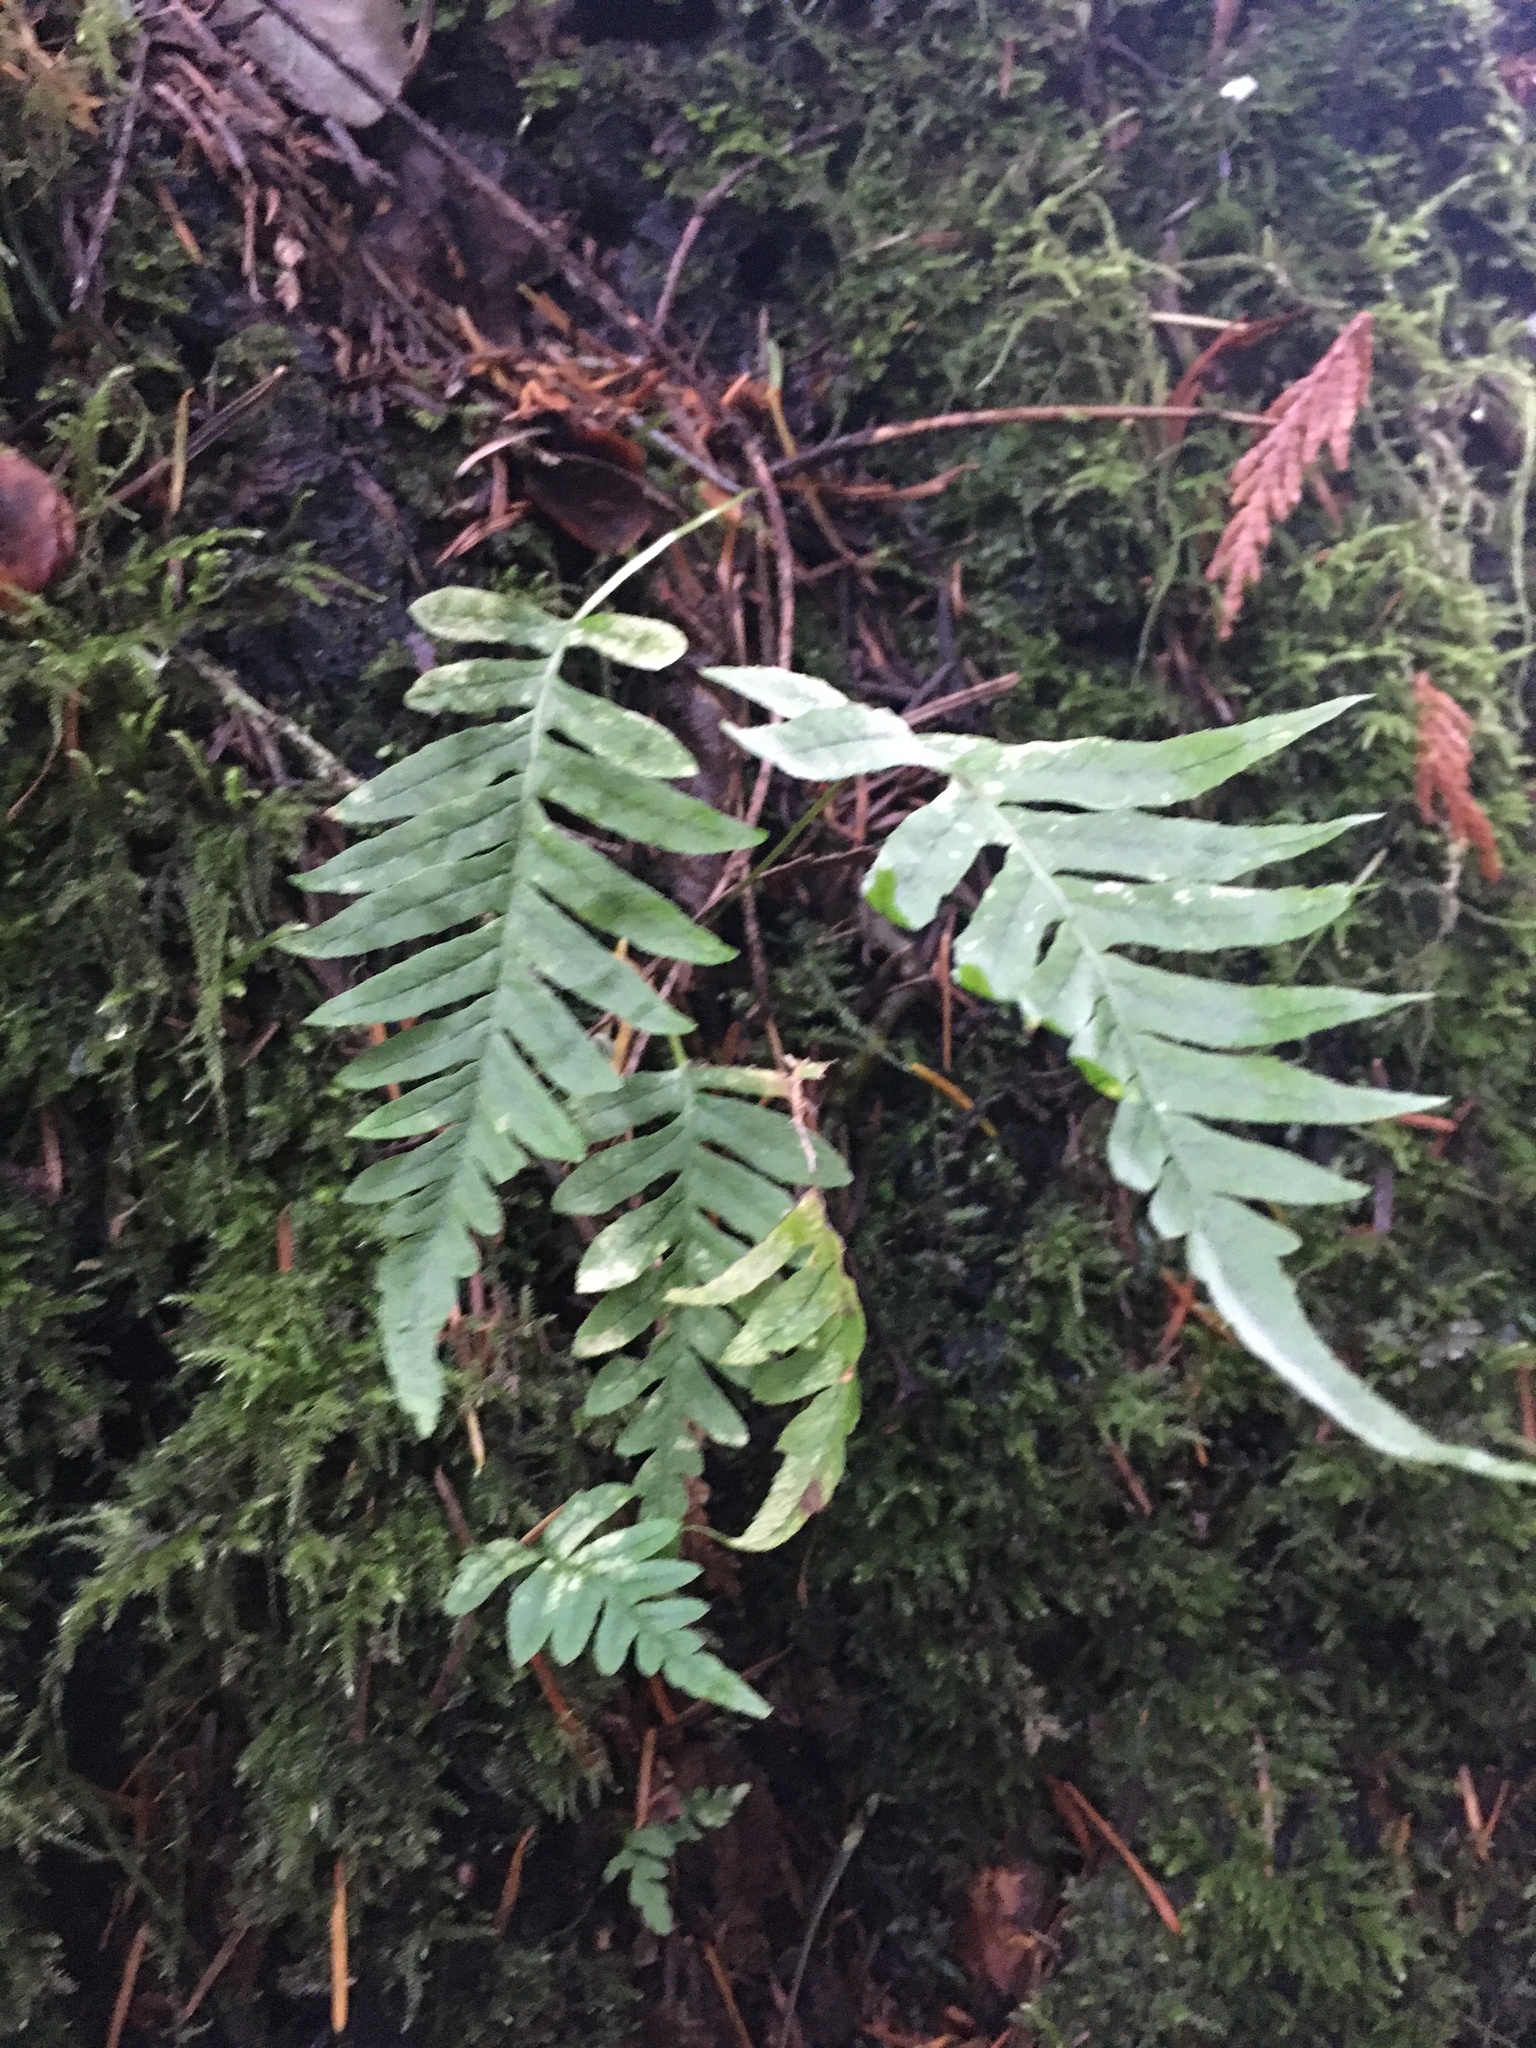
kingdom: Plantae
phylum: Tracheophyta
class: Polypodiopsida
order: Polypodiales
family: Polypodiaceae
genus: Polypodium
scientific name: Polypodium glycyrrhiza
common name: Licorice fern
